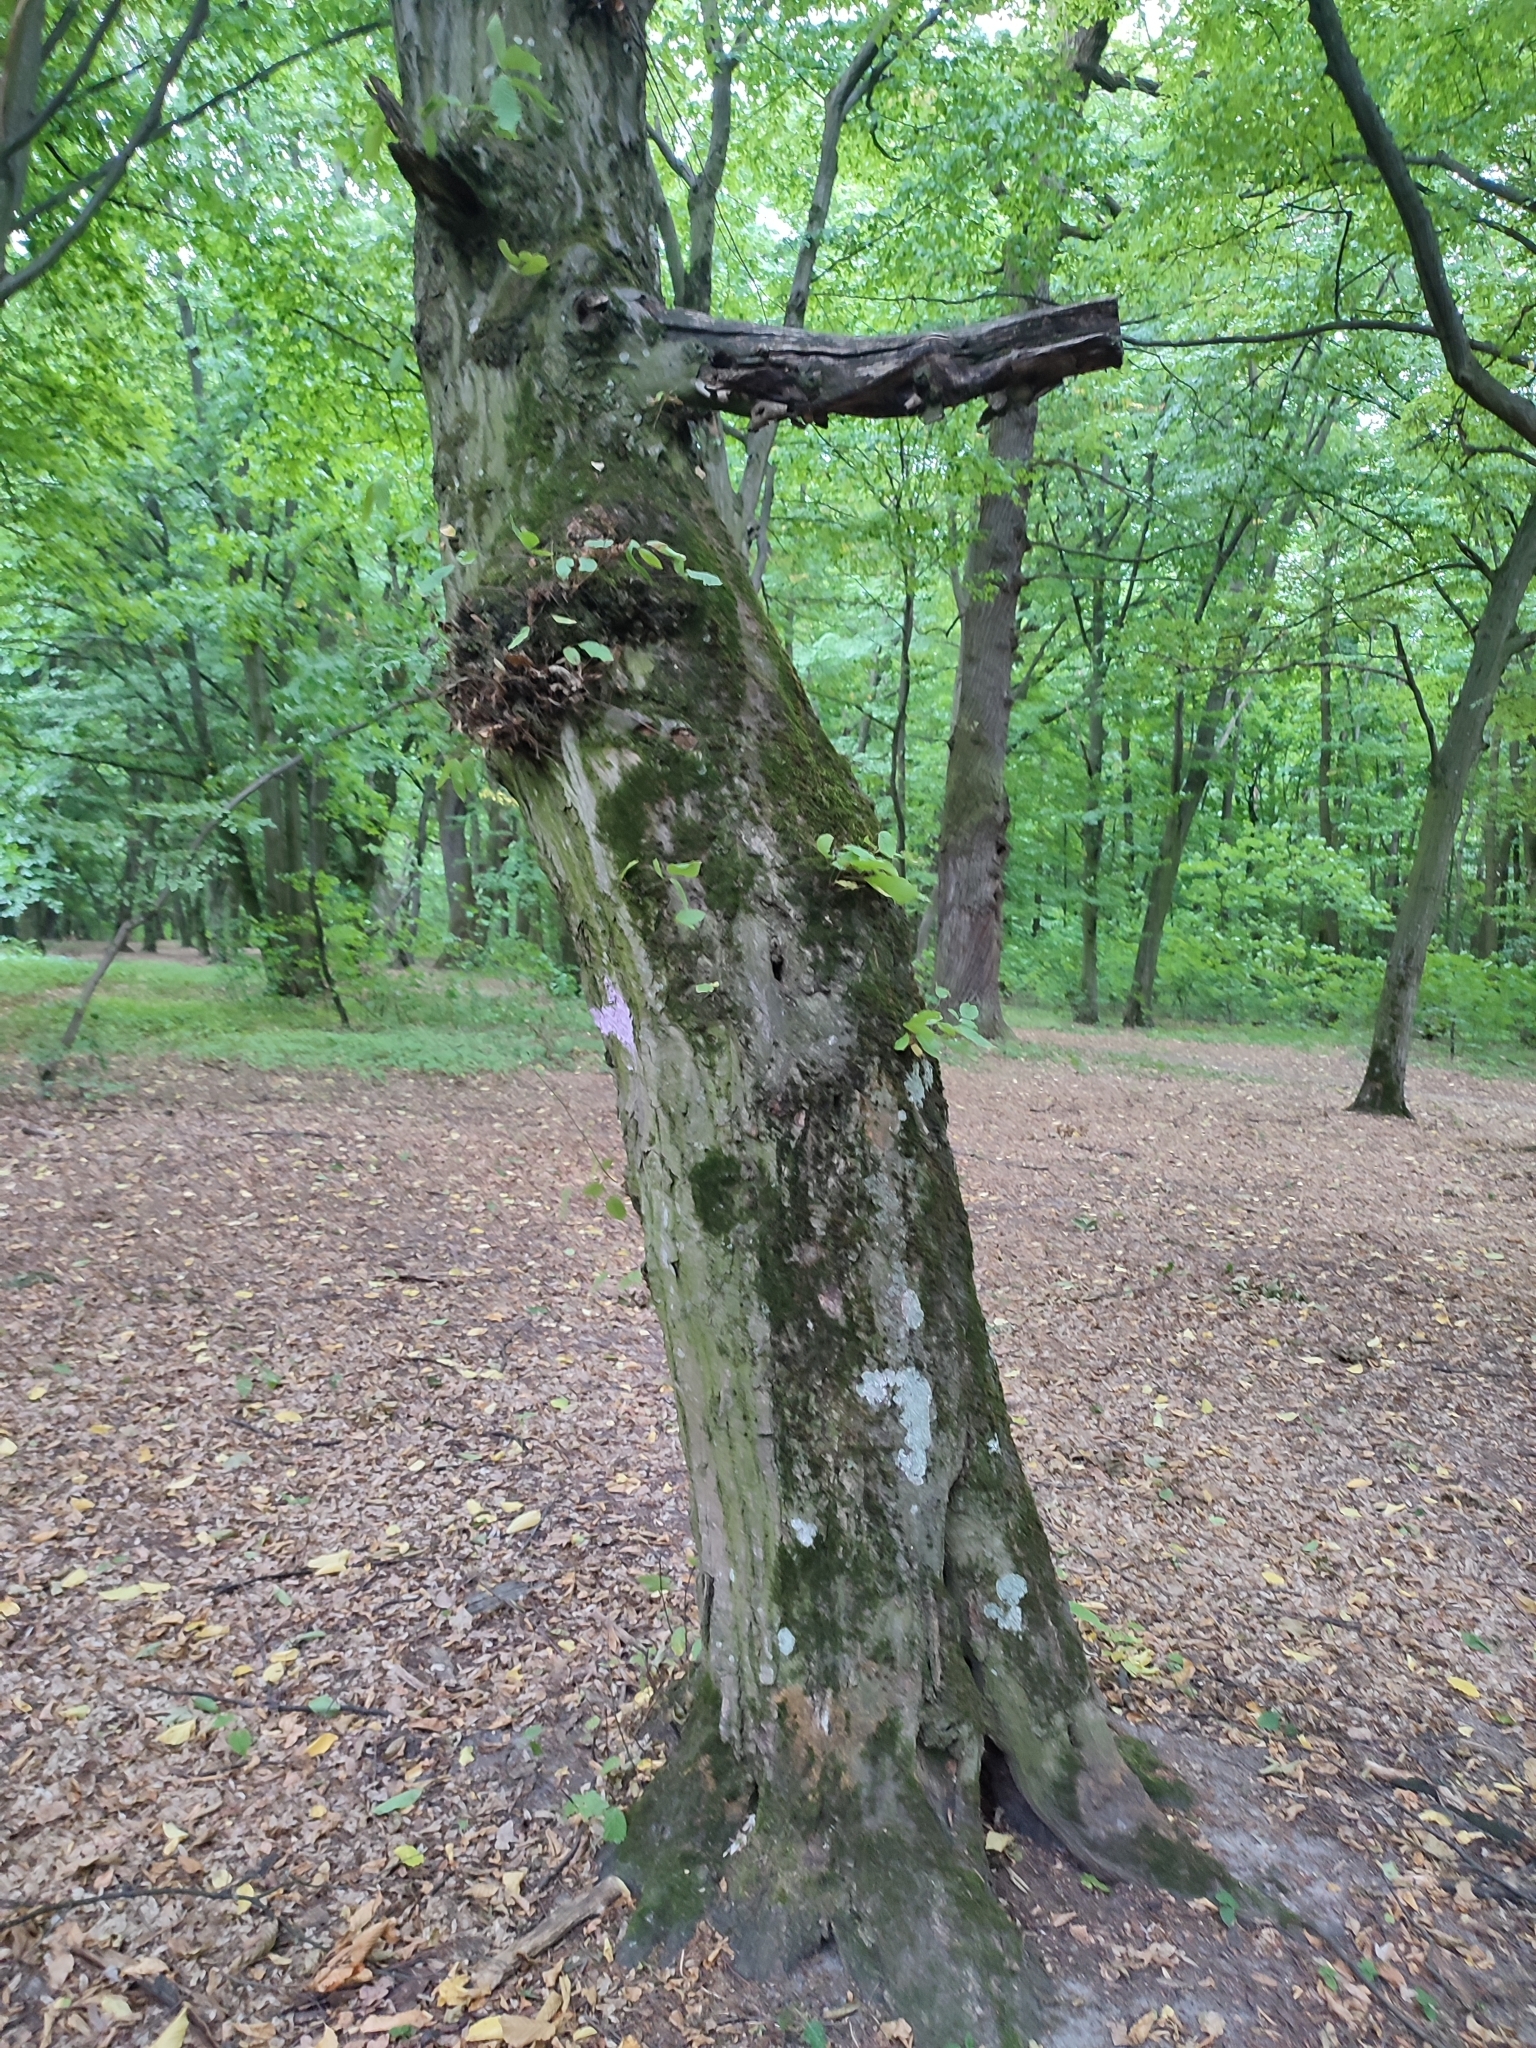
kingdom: Plantae
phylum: Tracheophyta
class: Magnoliopsida
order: Fagales
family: Betulaceae
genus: Carpinus
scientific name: Carpinus betulus
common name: Hornbeam
